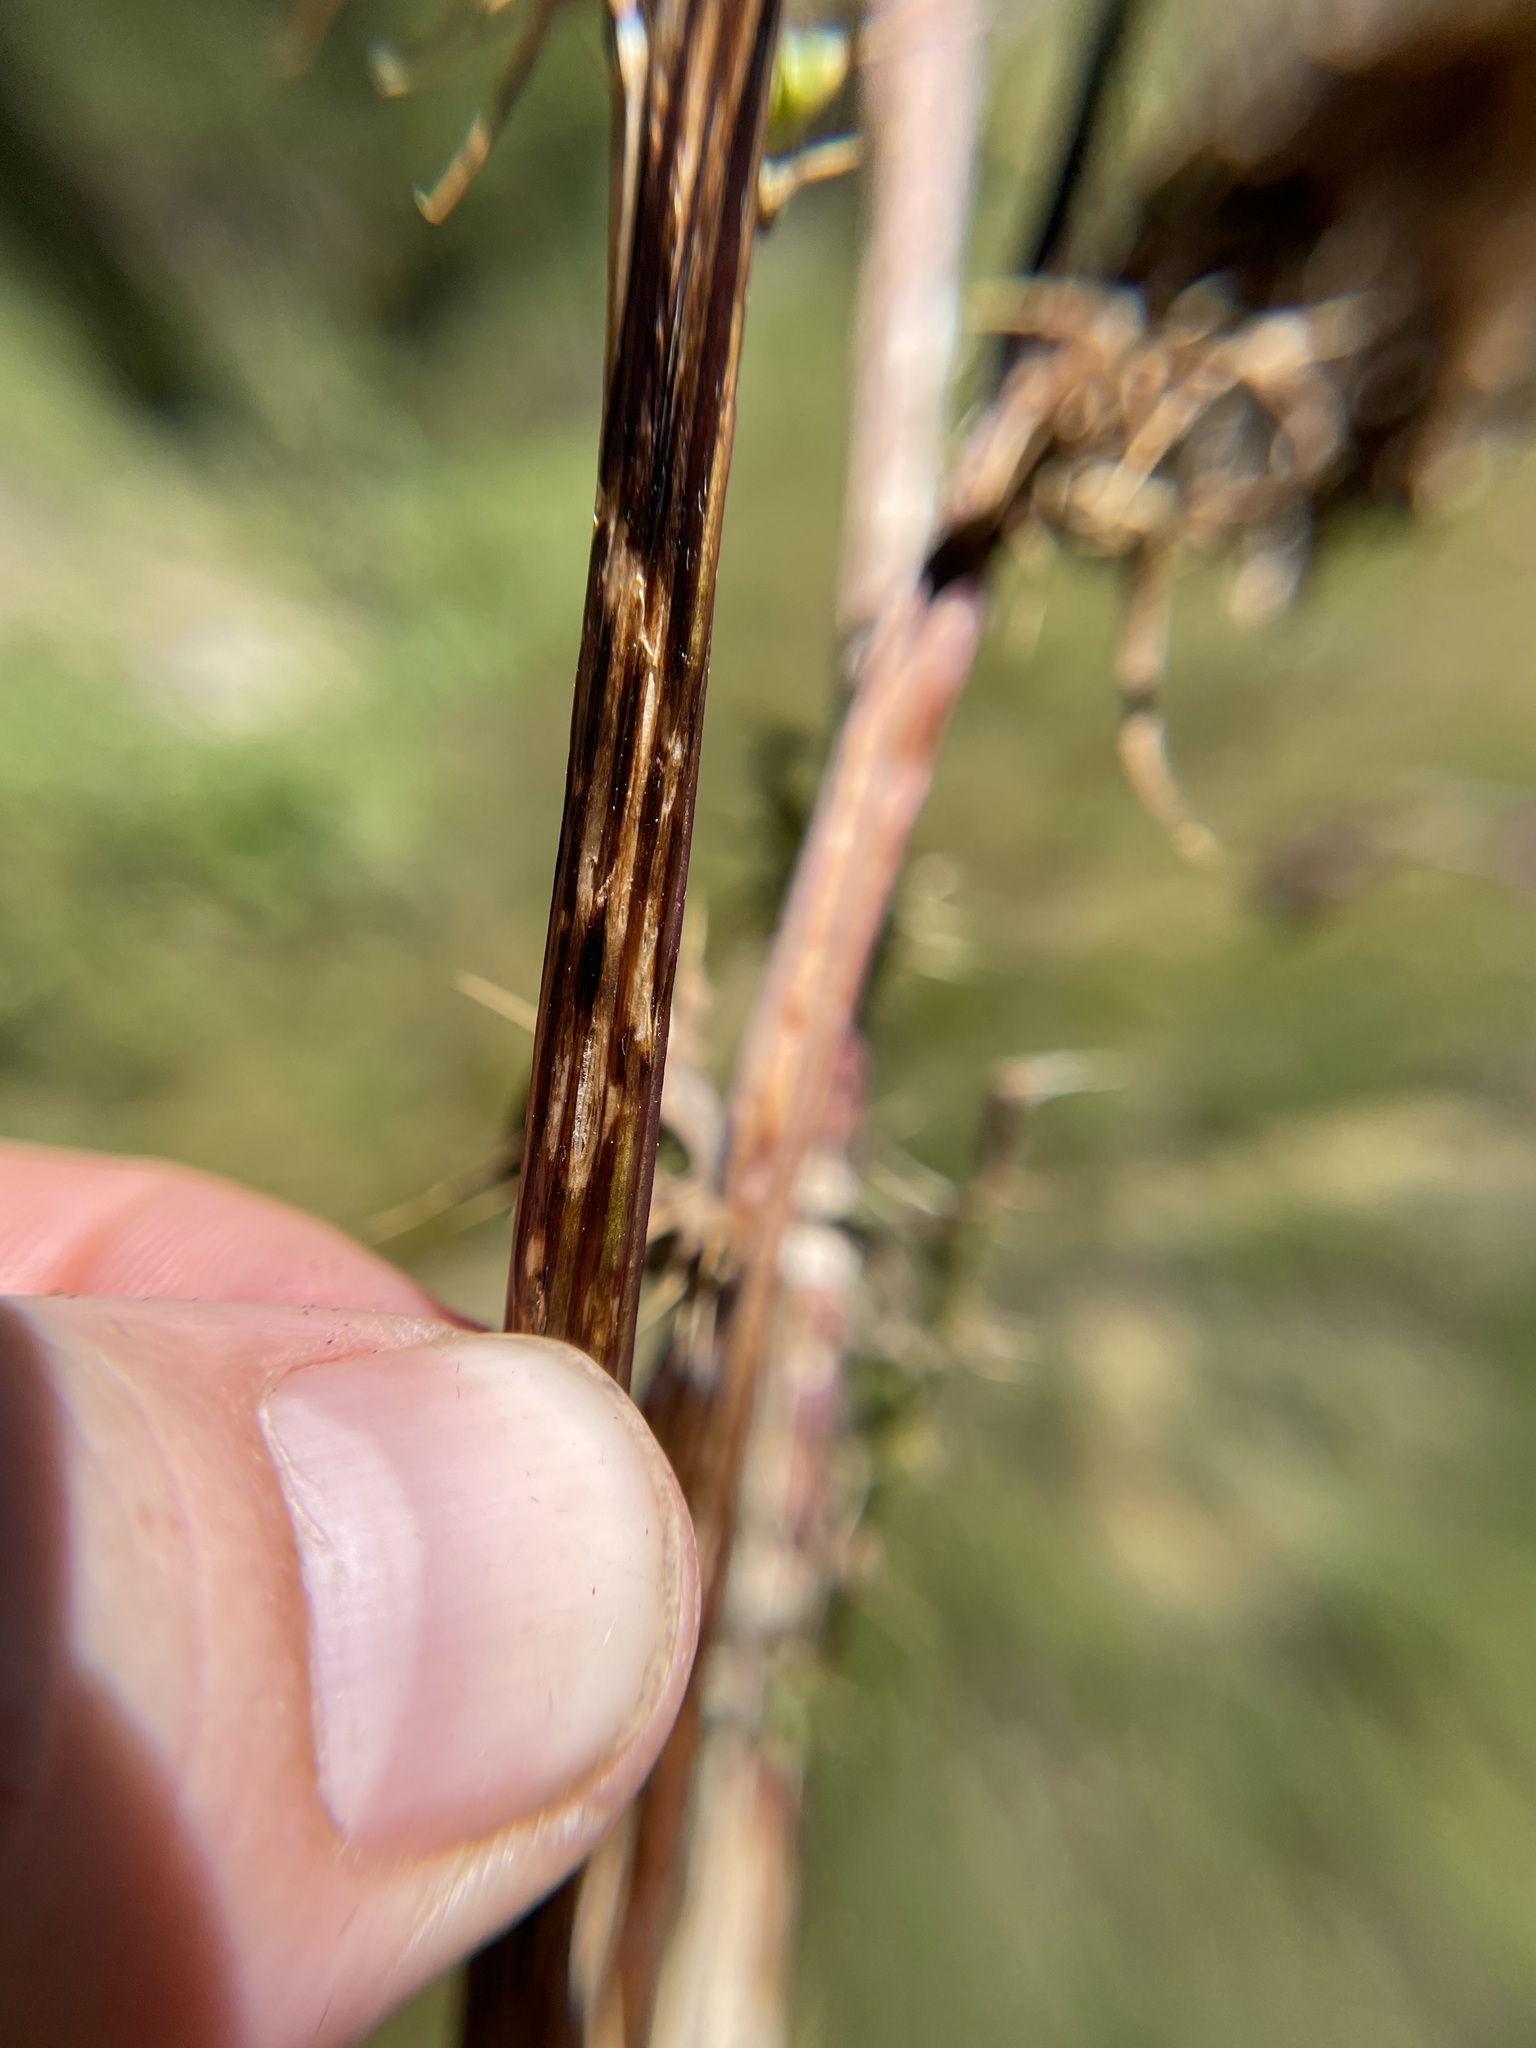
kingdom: Plantae
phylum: Tracheophyta
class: Magnoliopsida
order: Asterales
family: Asteraceae
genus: Cirsium
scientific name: Cirsium vinaceum
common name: Sacramento mountain thistle
